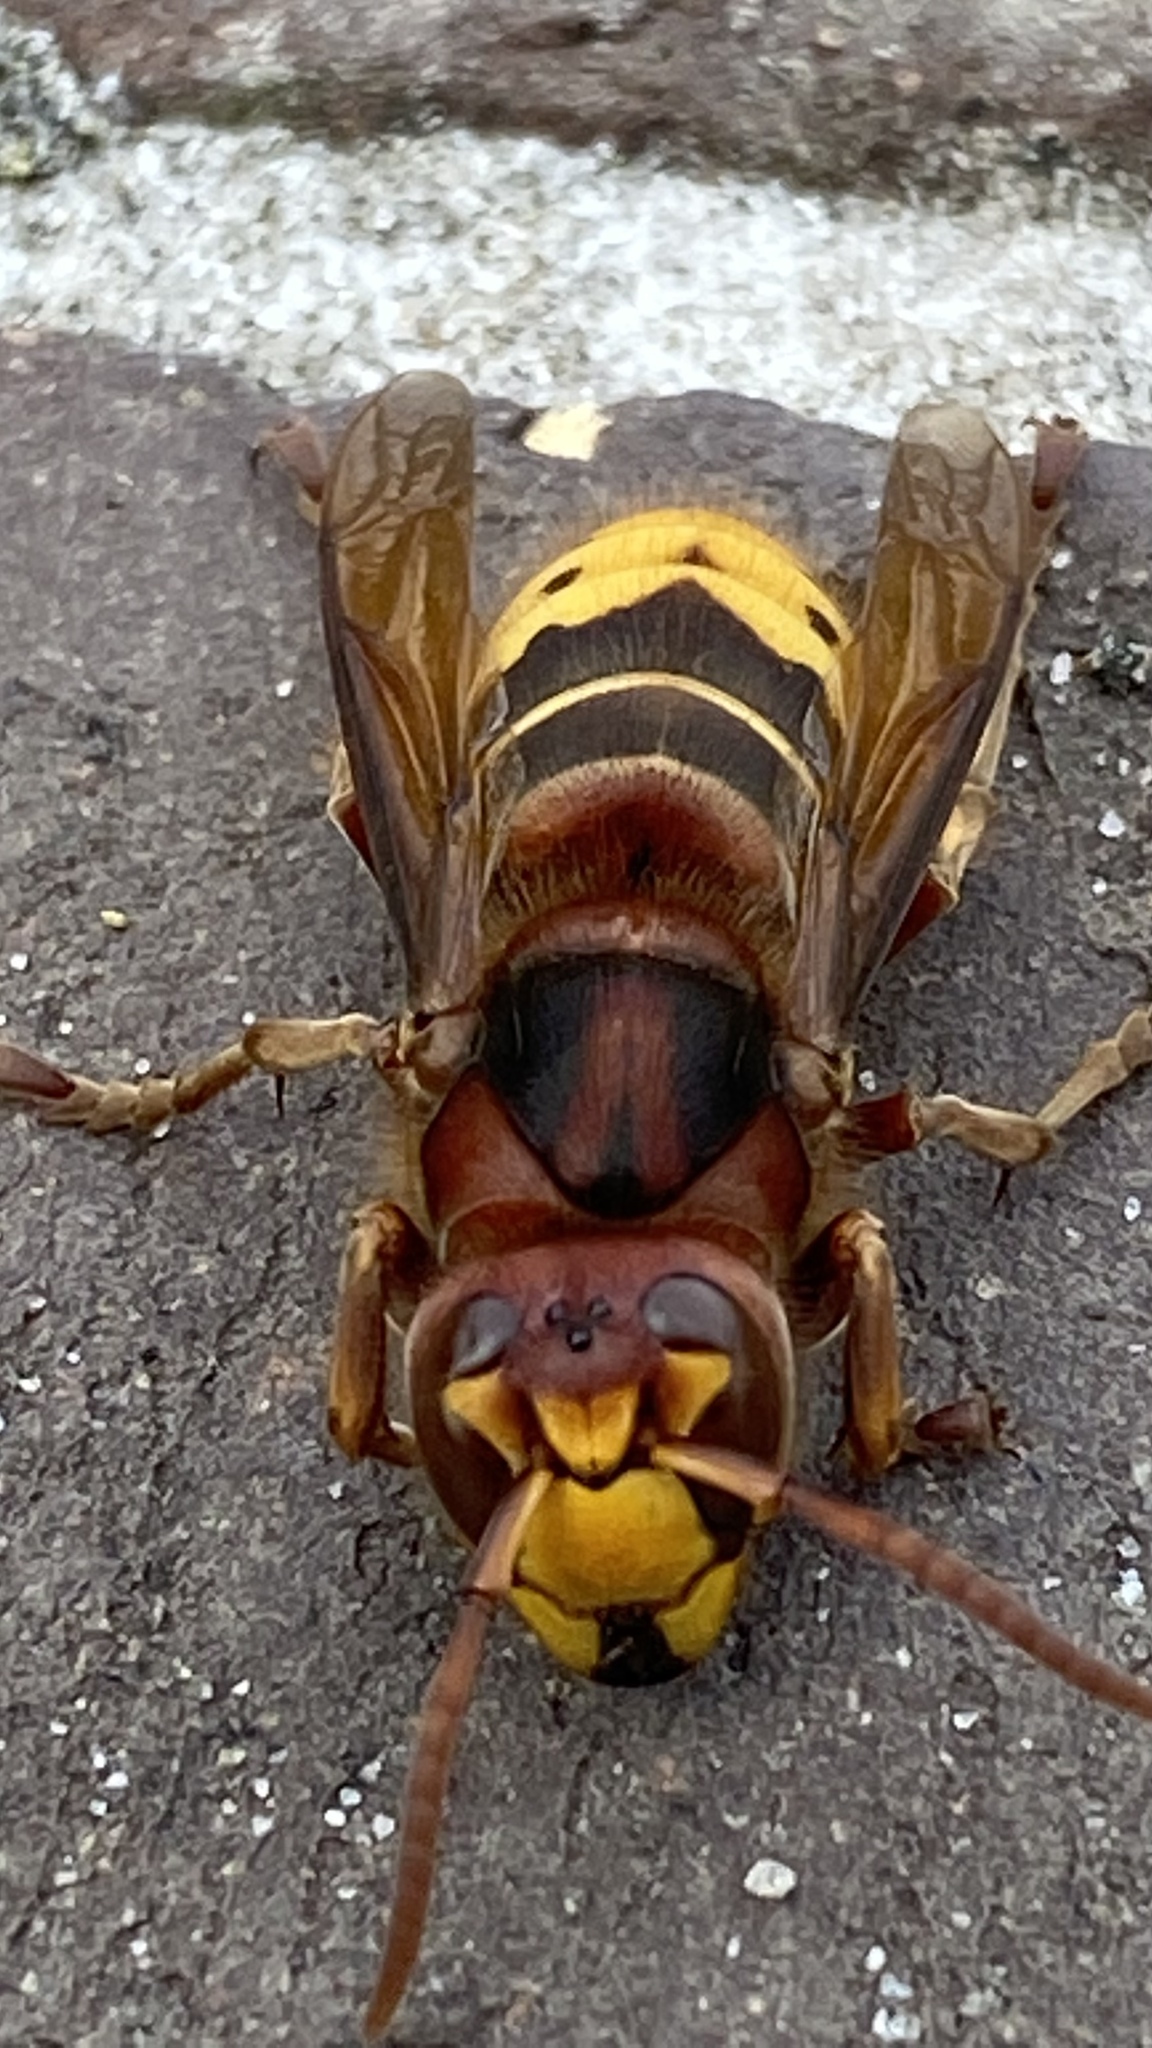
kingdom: Animalia
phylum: Arthropoda
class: Insecta
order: Hymenoptera
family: Vespidae
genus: Vespa
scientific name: Vespa crabro
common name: Hornet
